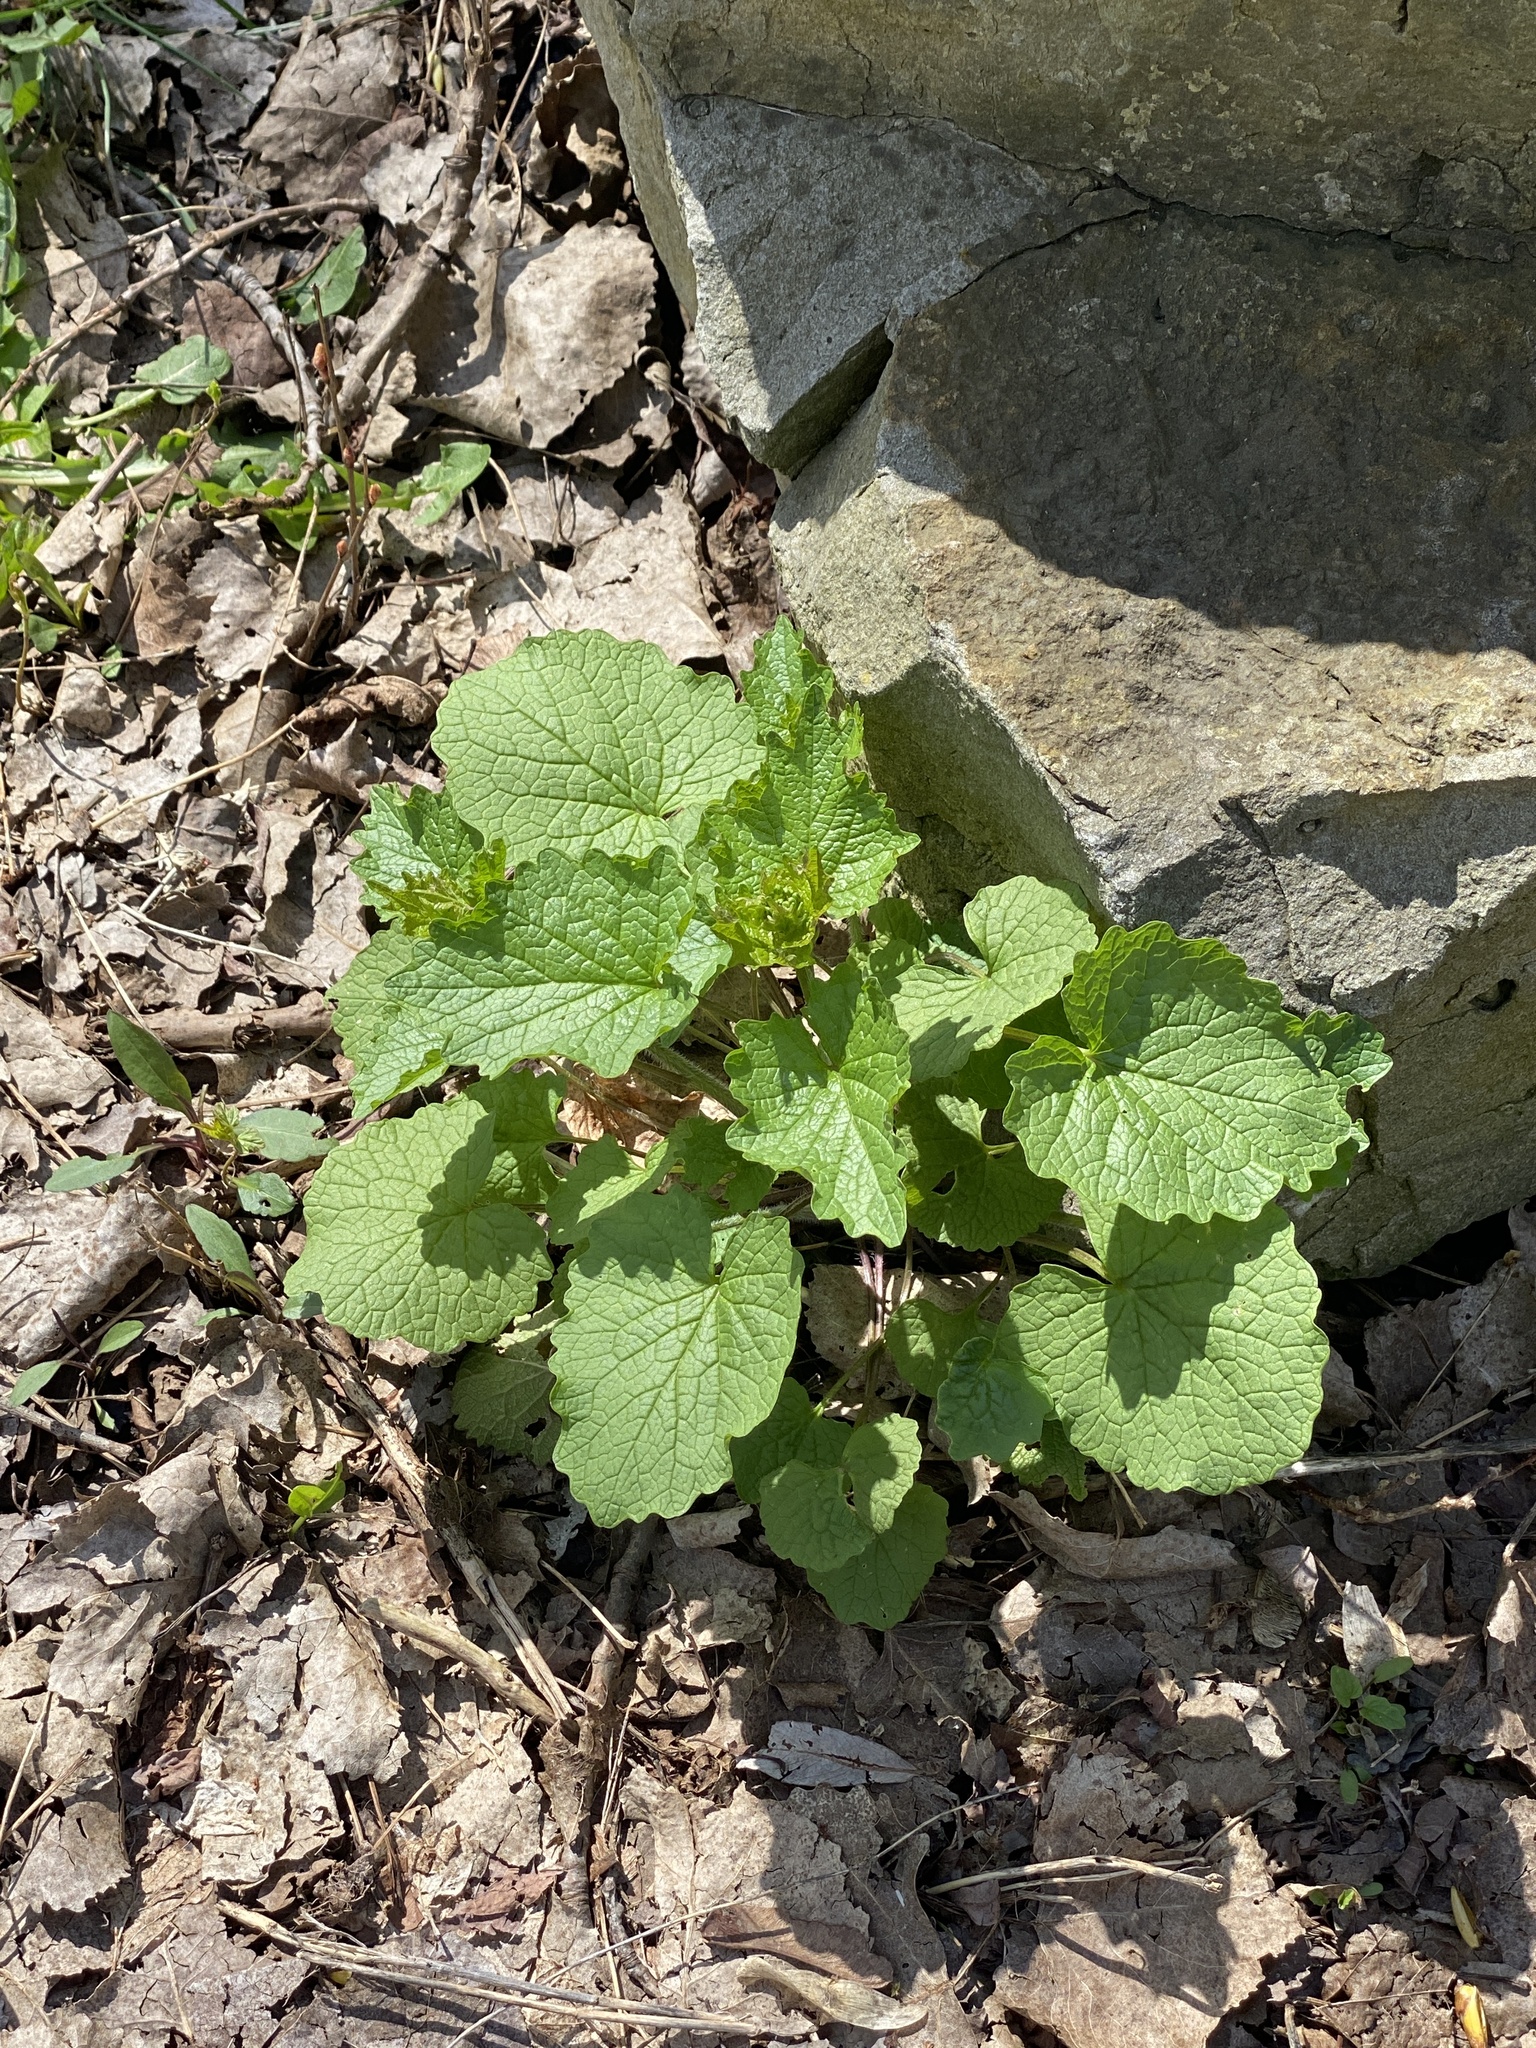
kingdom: Plantae
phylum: Tracheophyta
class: Magnoliopsida
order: Brassicales
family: Brassicaceae
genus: Alliaria
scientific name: Alliaria petiolata
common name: Garlic mustard
